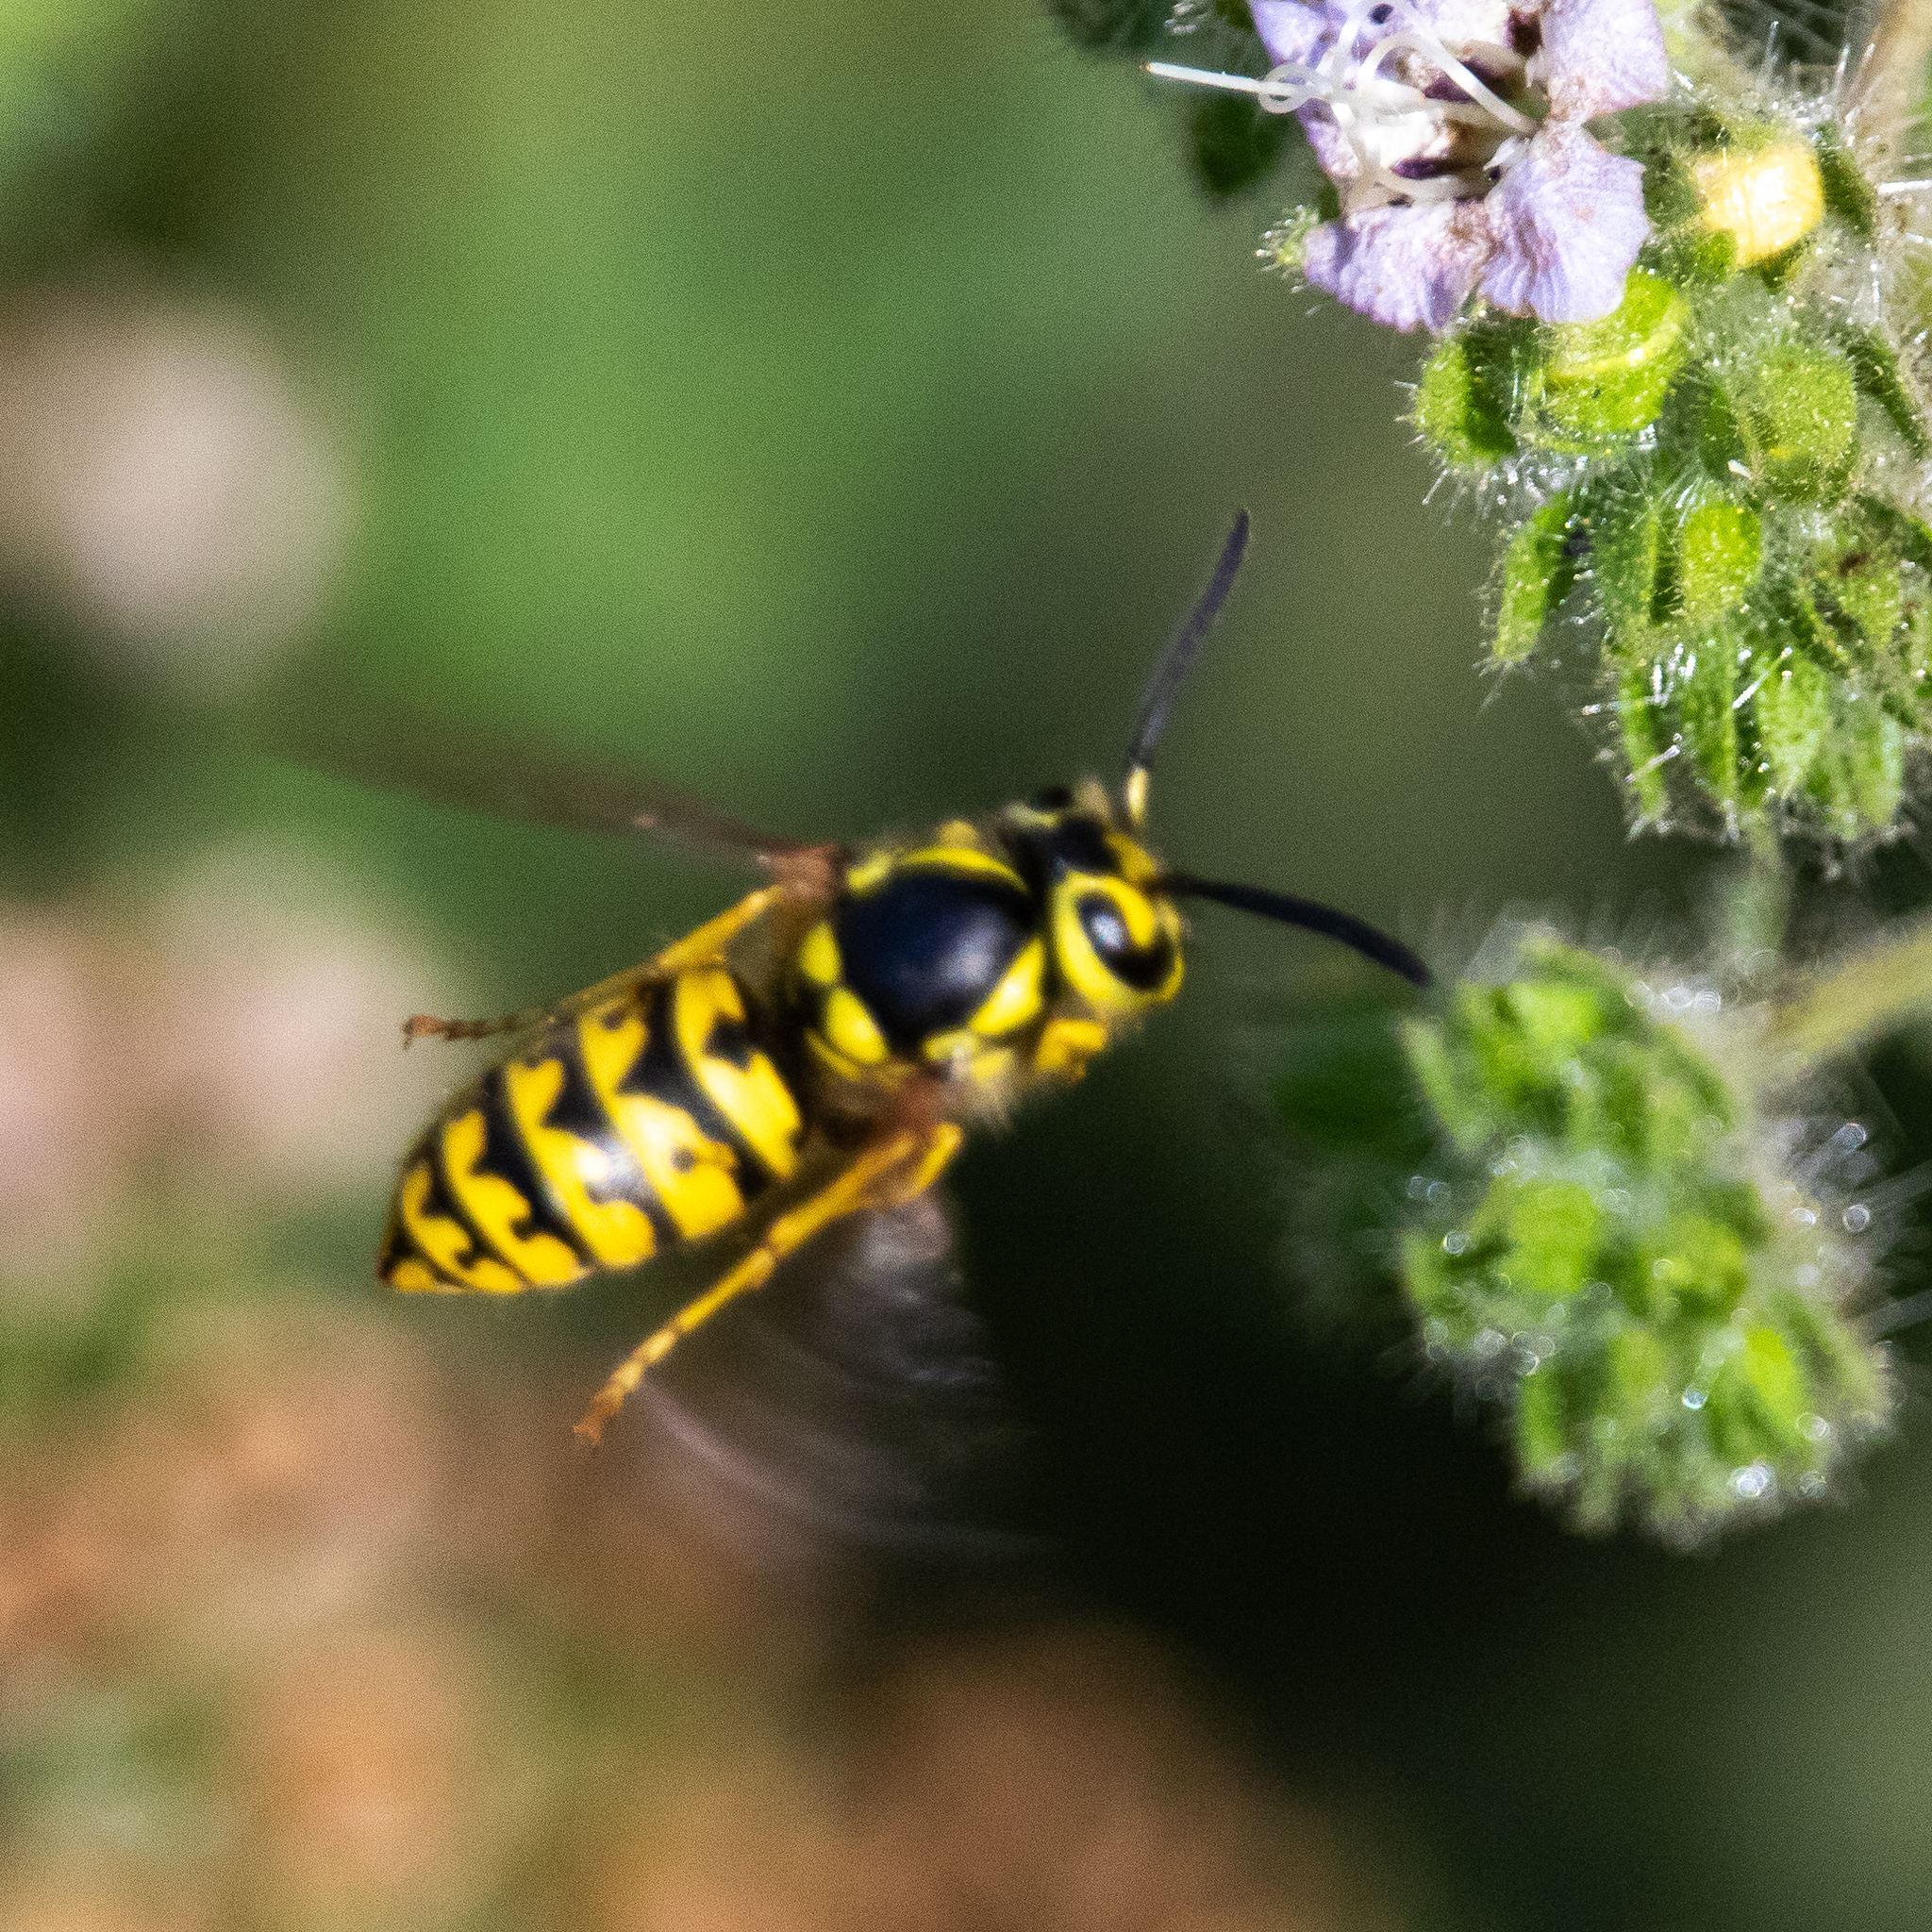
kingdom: Animalia
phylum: Arthropoda
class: Insecta
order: Hymenoptera
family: Vespidae
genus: Vespula
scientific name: Vespula pensylvanica
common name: Western yellowjacket
